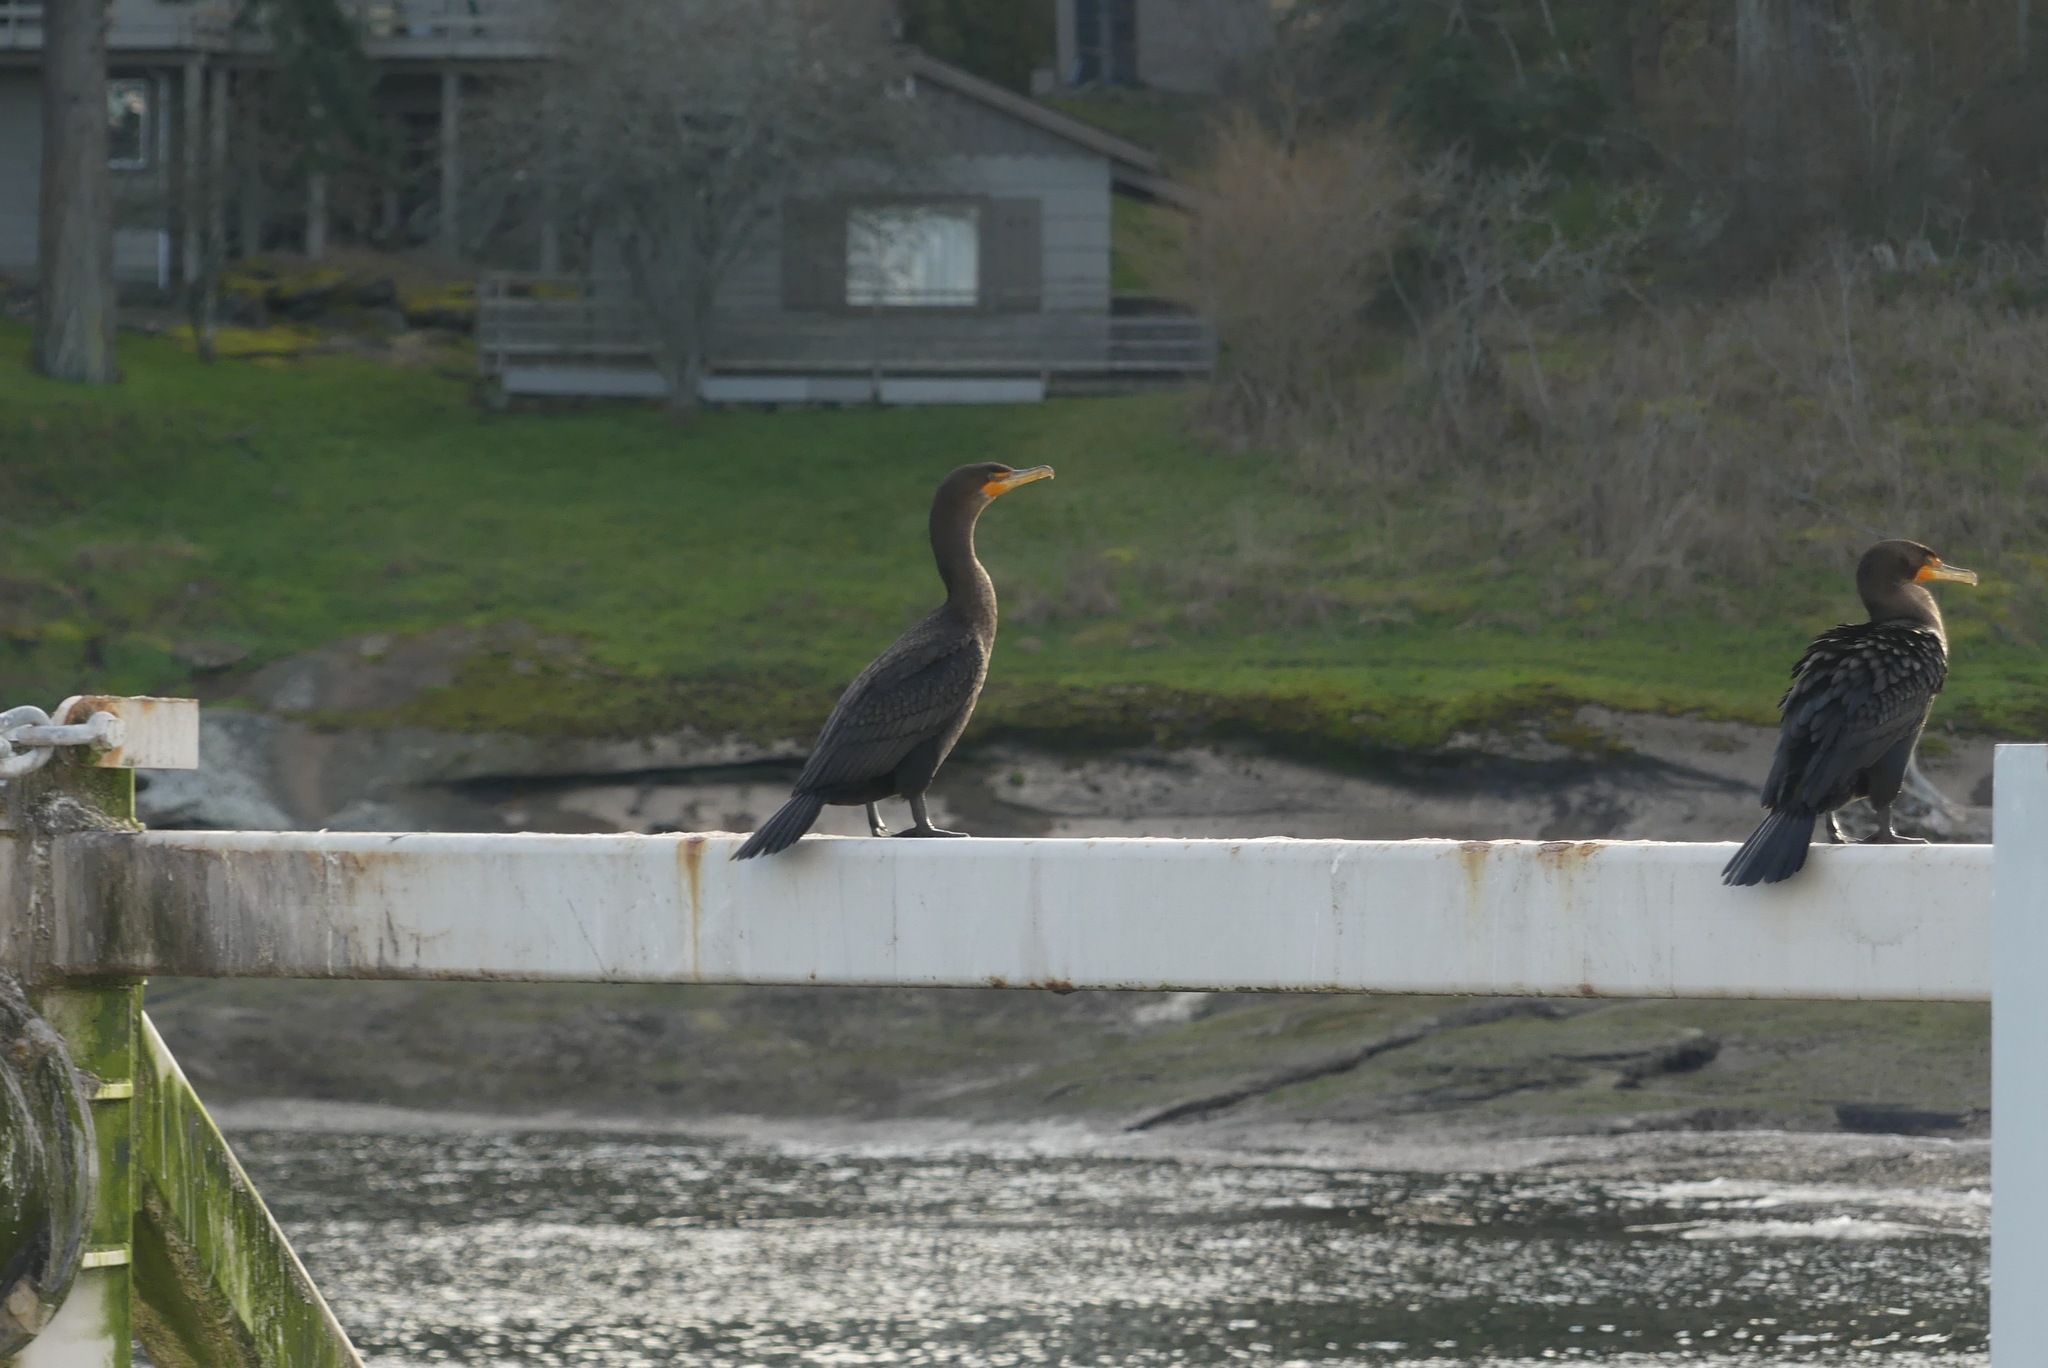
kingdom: Animalia
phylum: Chordata
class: Aves
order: Suliformes
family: Phalacrocoracidae
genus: Phalacrocorax
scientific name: Phalacrocorax auritus
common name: Double-crested cormorant
